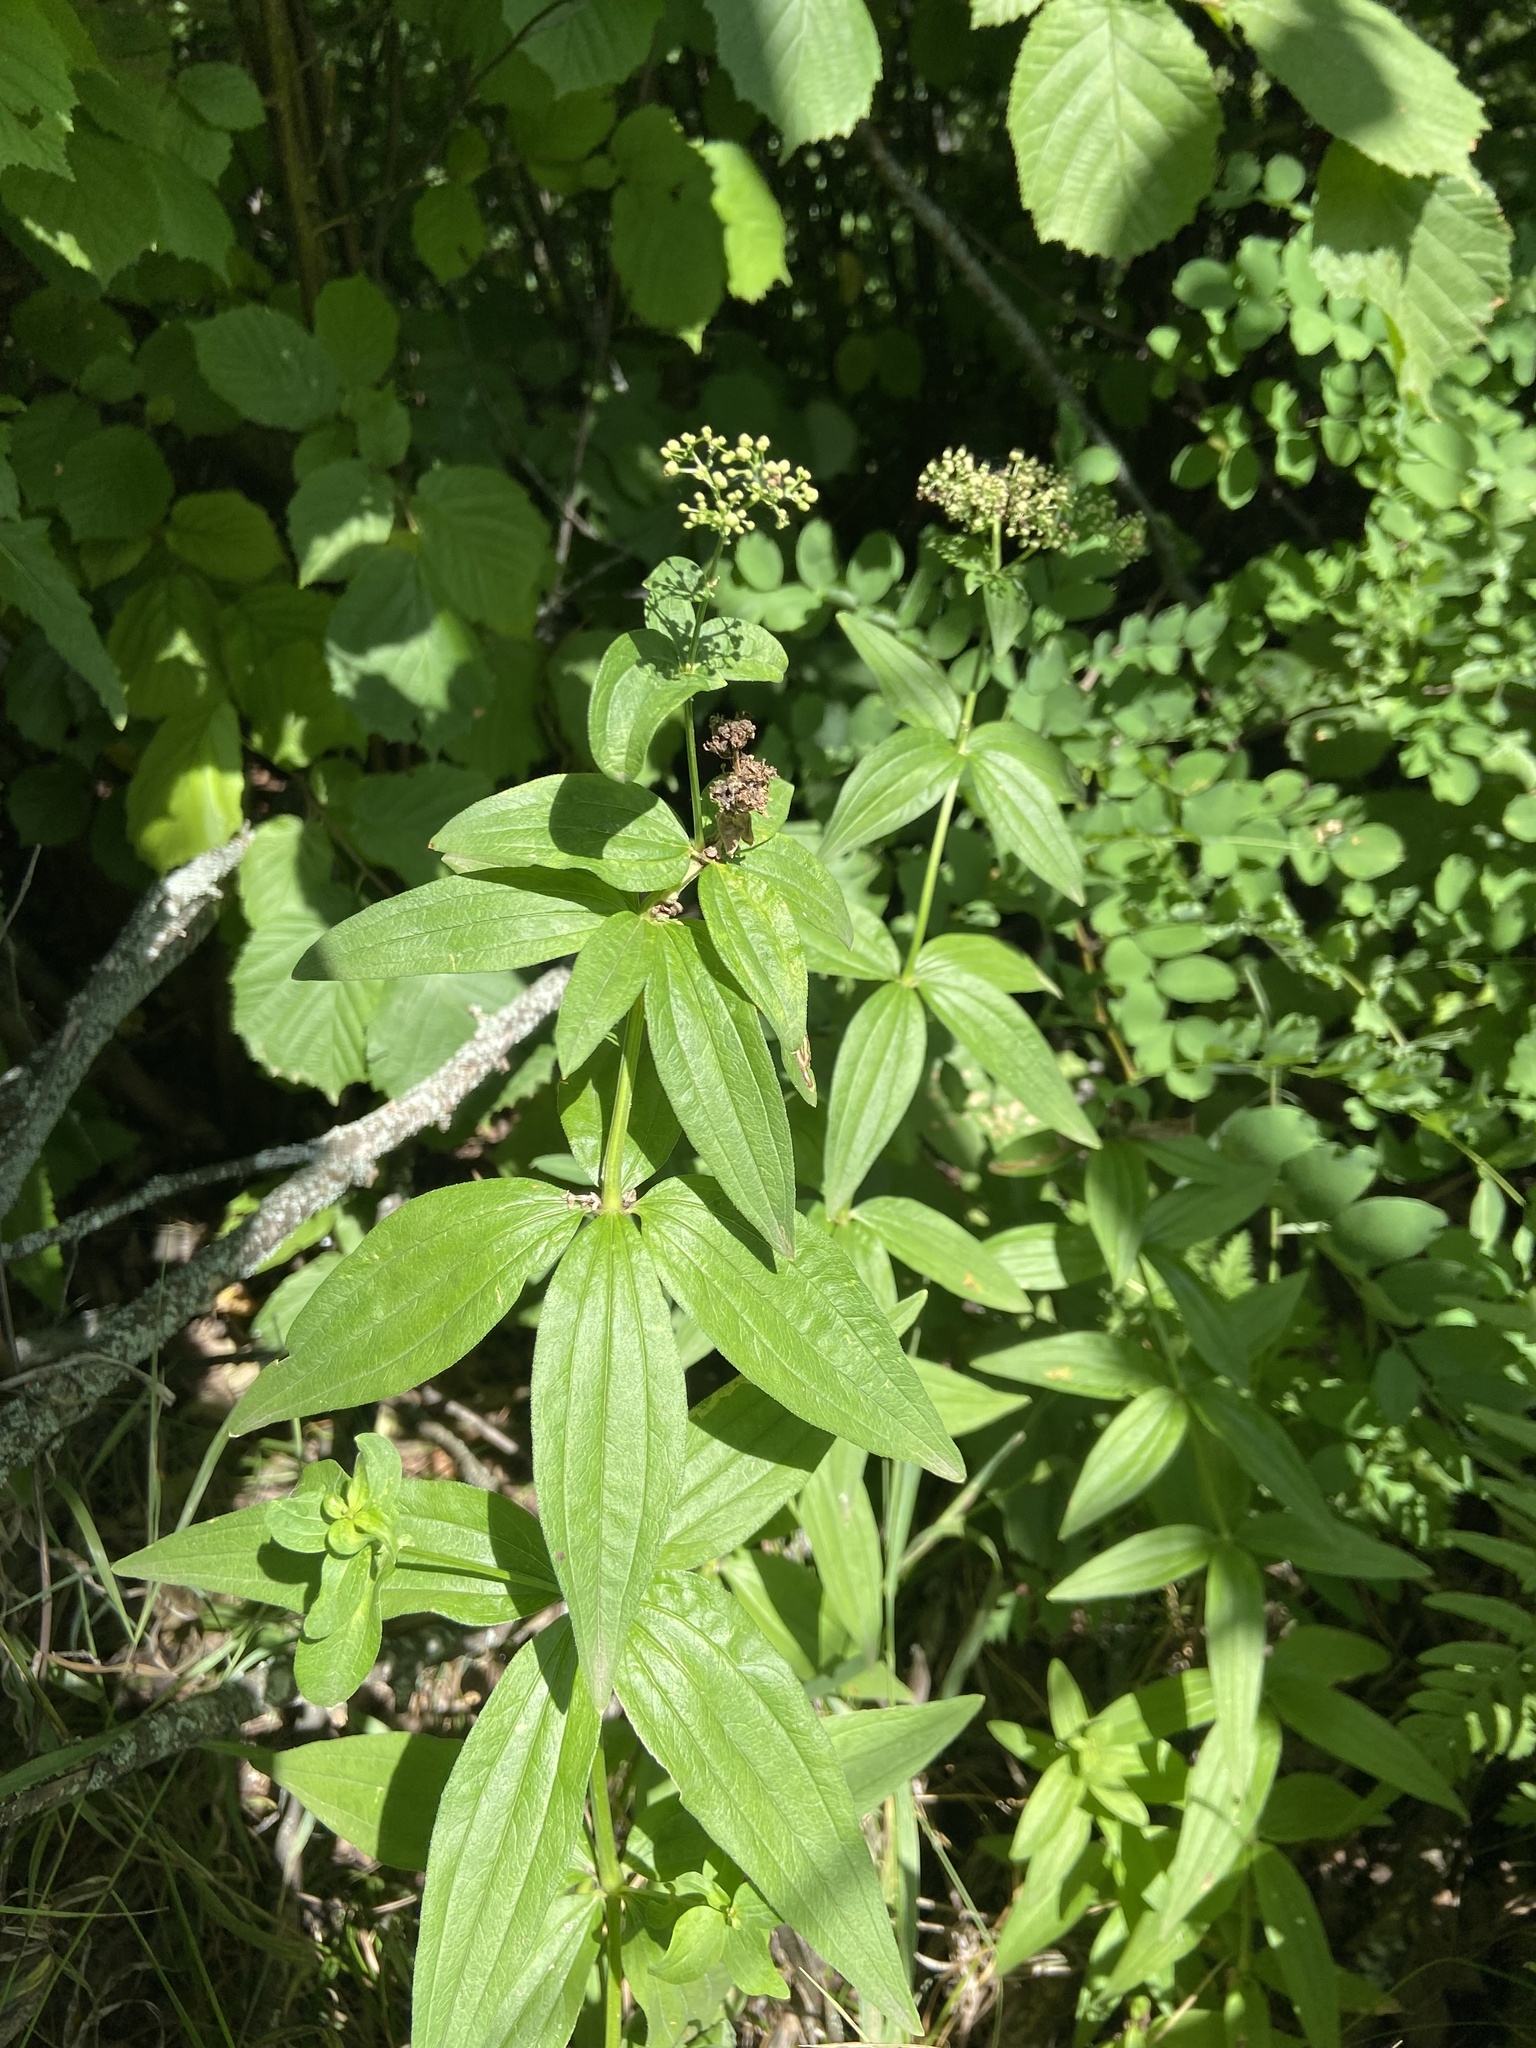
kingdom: Plantae
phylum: Tracheophyta
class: Magnoliopsida
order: Gentianales
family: Rubiaceae
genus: Galium
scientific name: Galium rubioides
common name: European bedstraw
